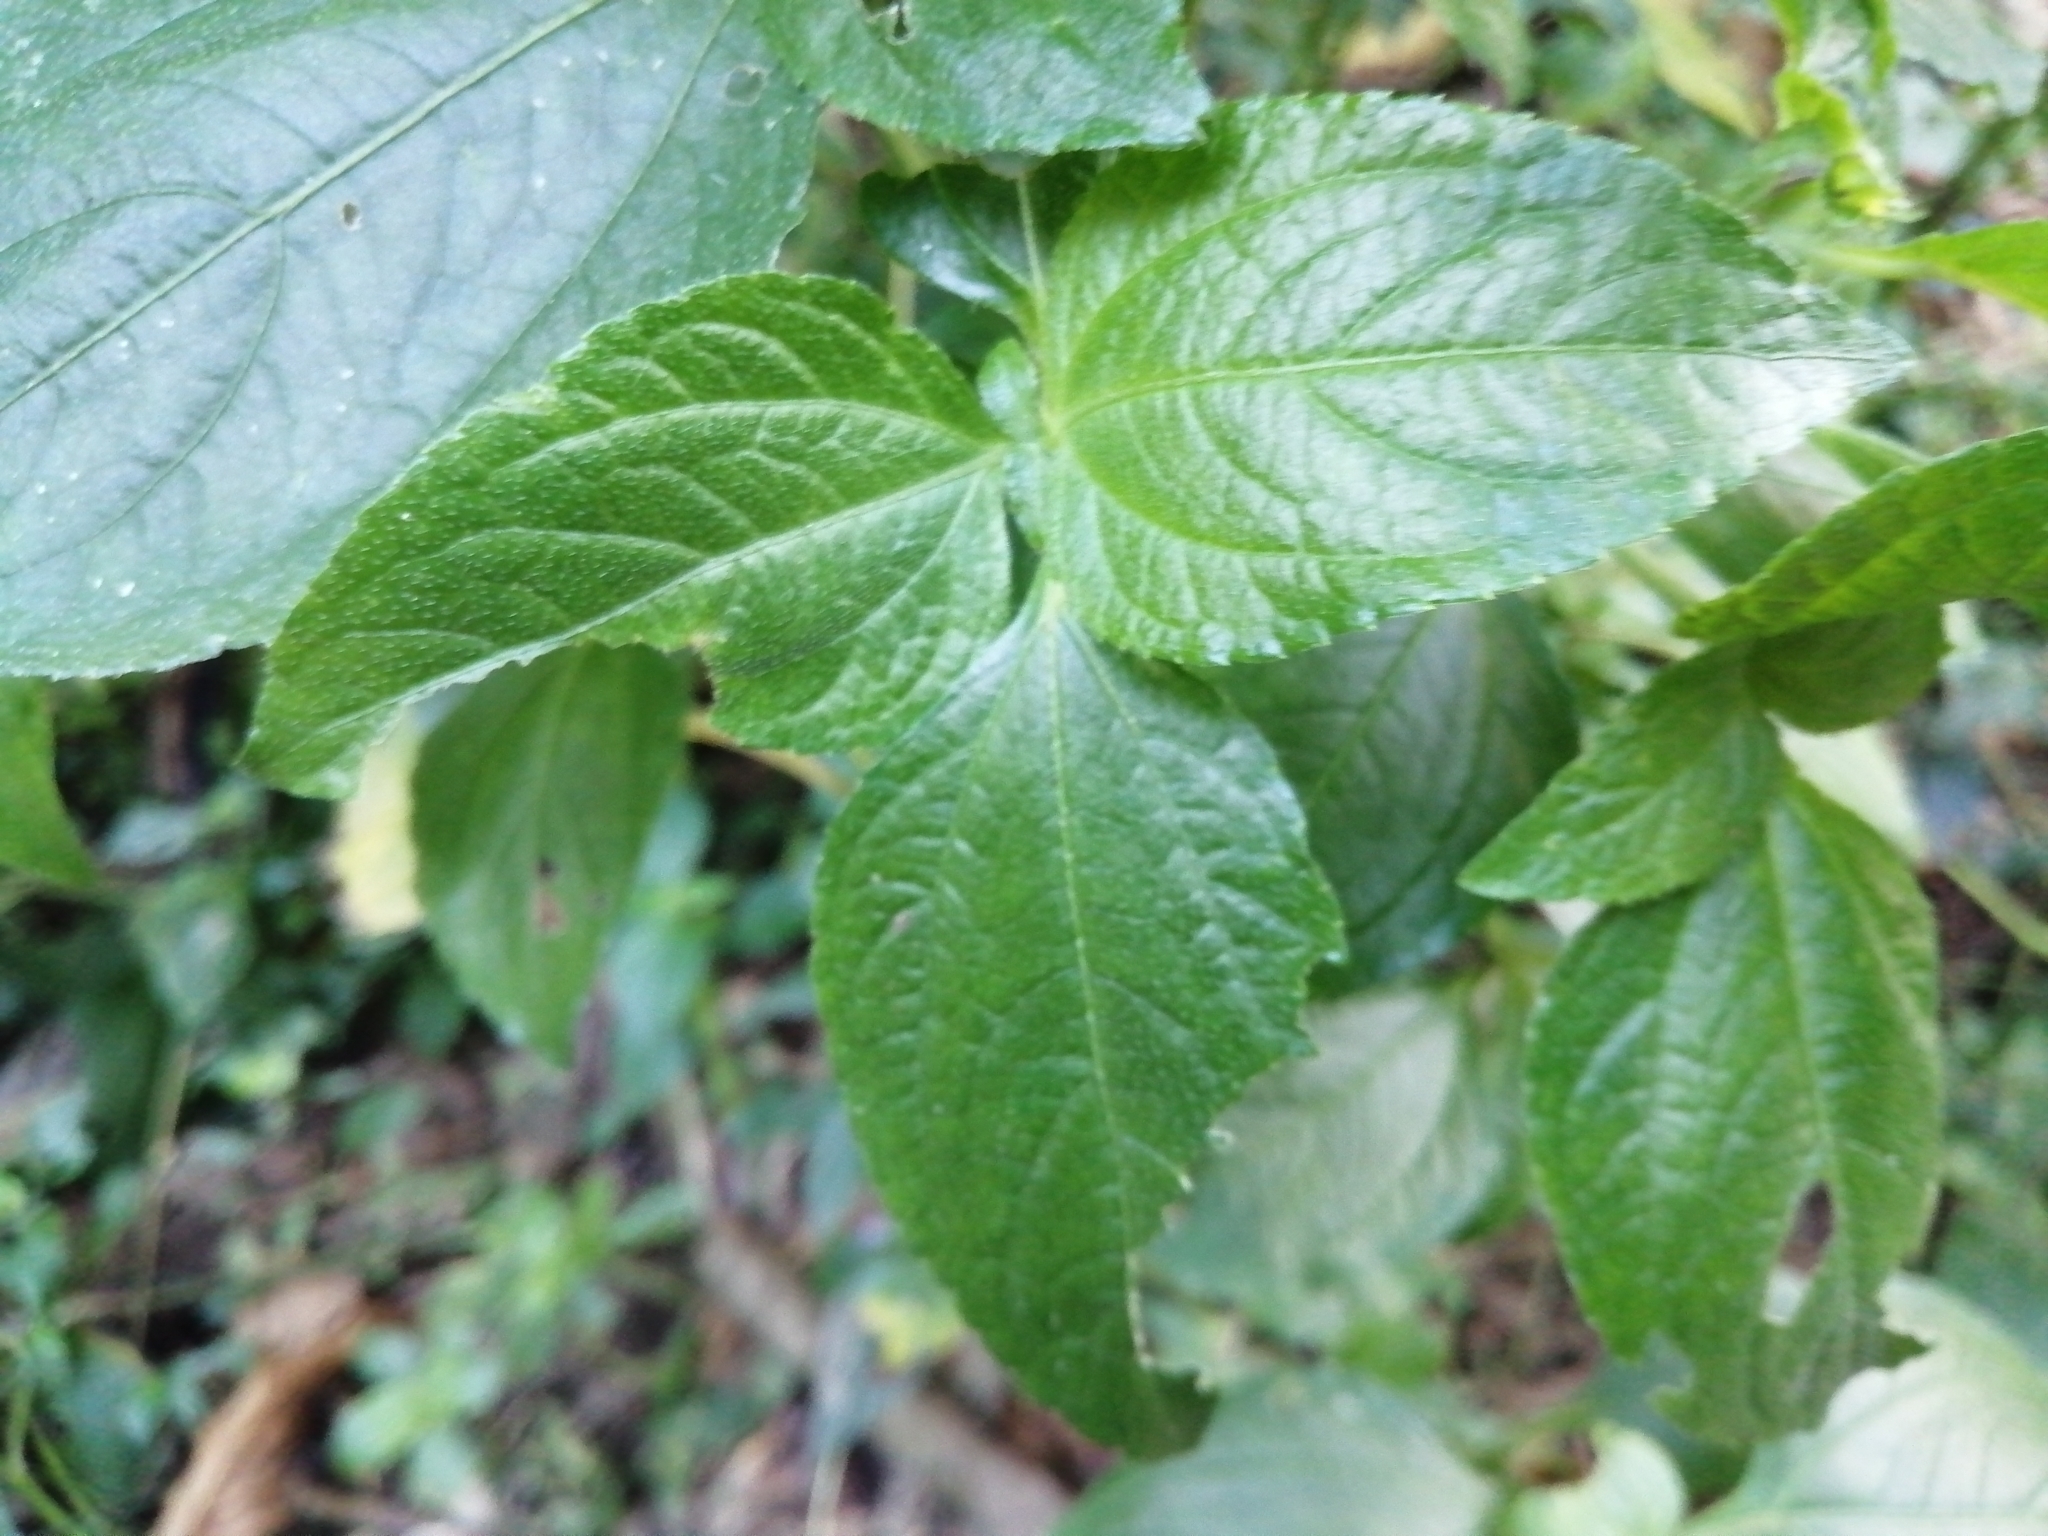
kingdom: Plantae
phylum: Tracheophyta
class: Magnoliopsida
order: Asterales
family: Asteraceae
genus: Synedrella
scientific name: Synedrella nodiflora
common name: Nodeweed
